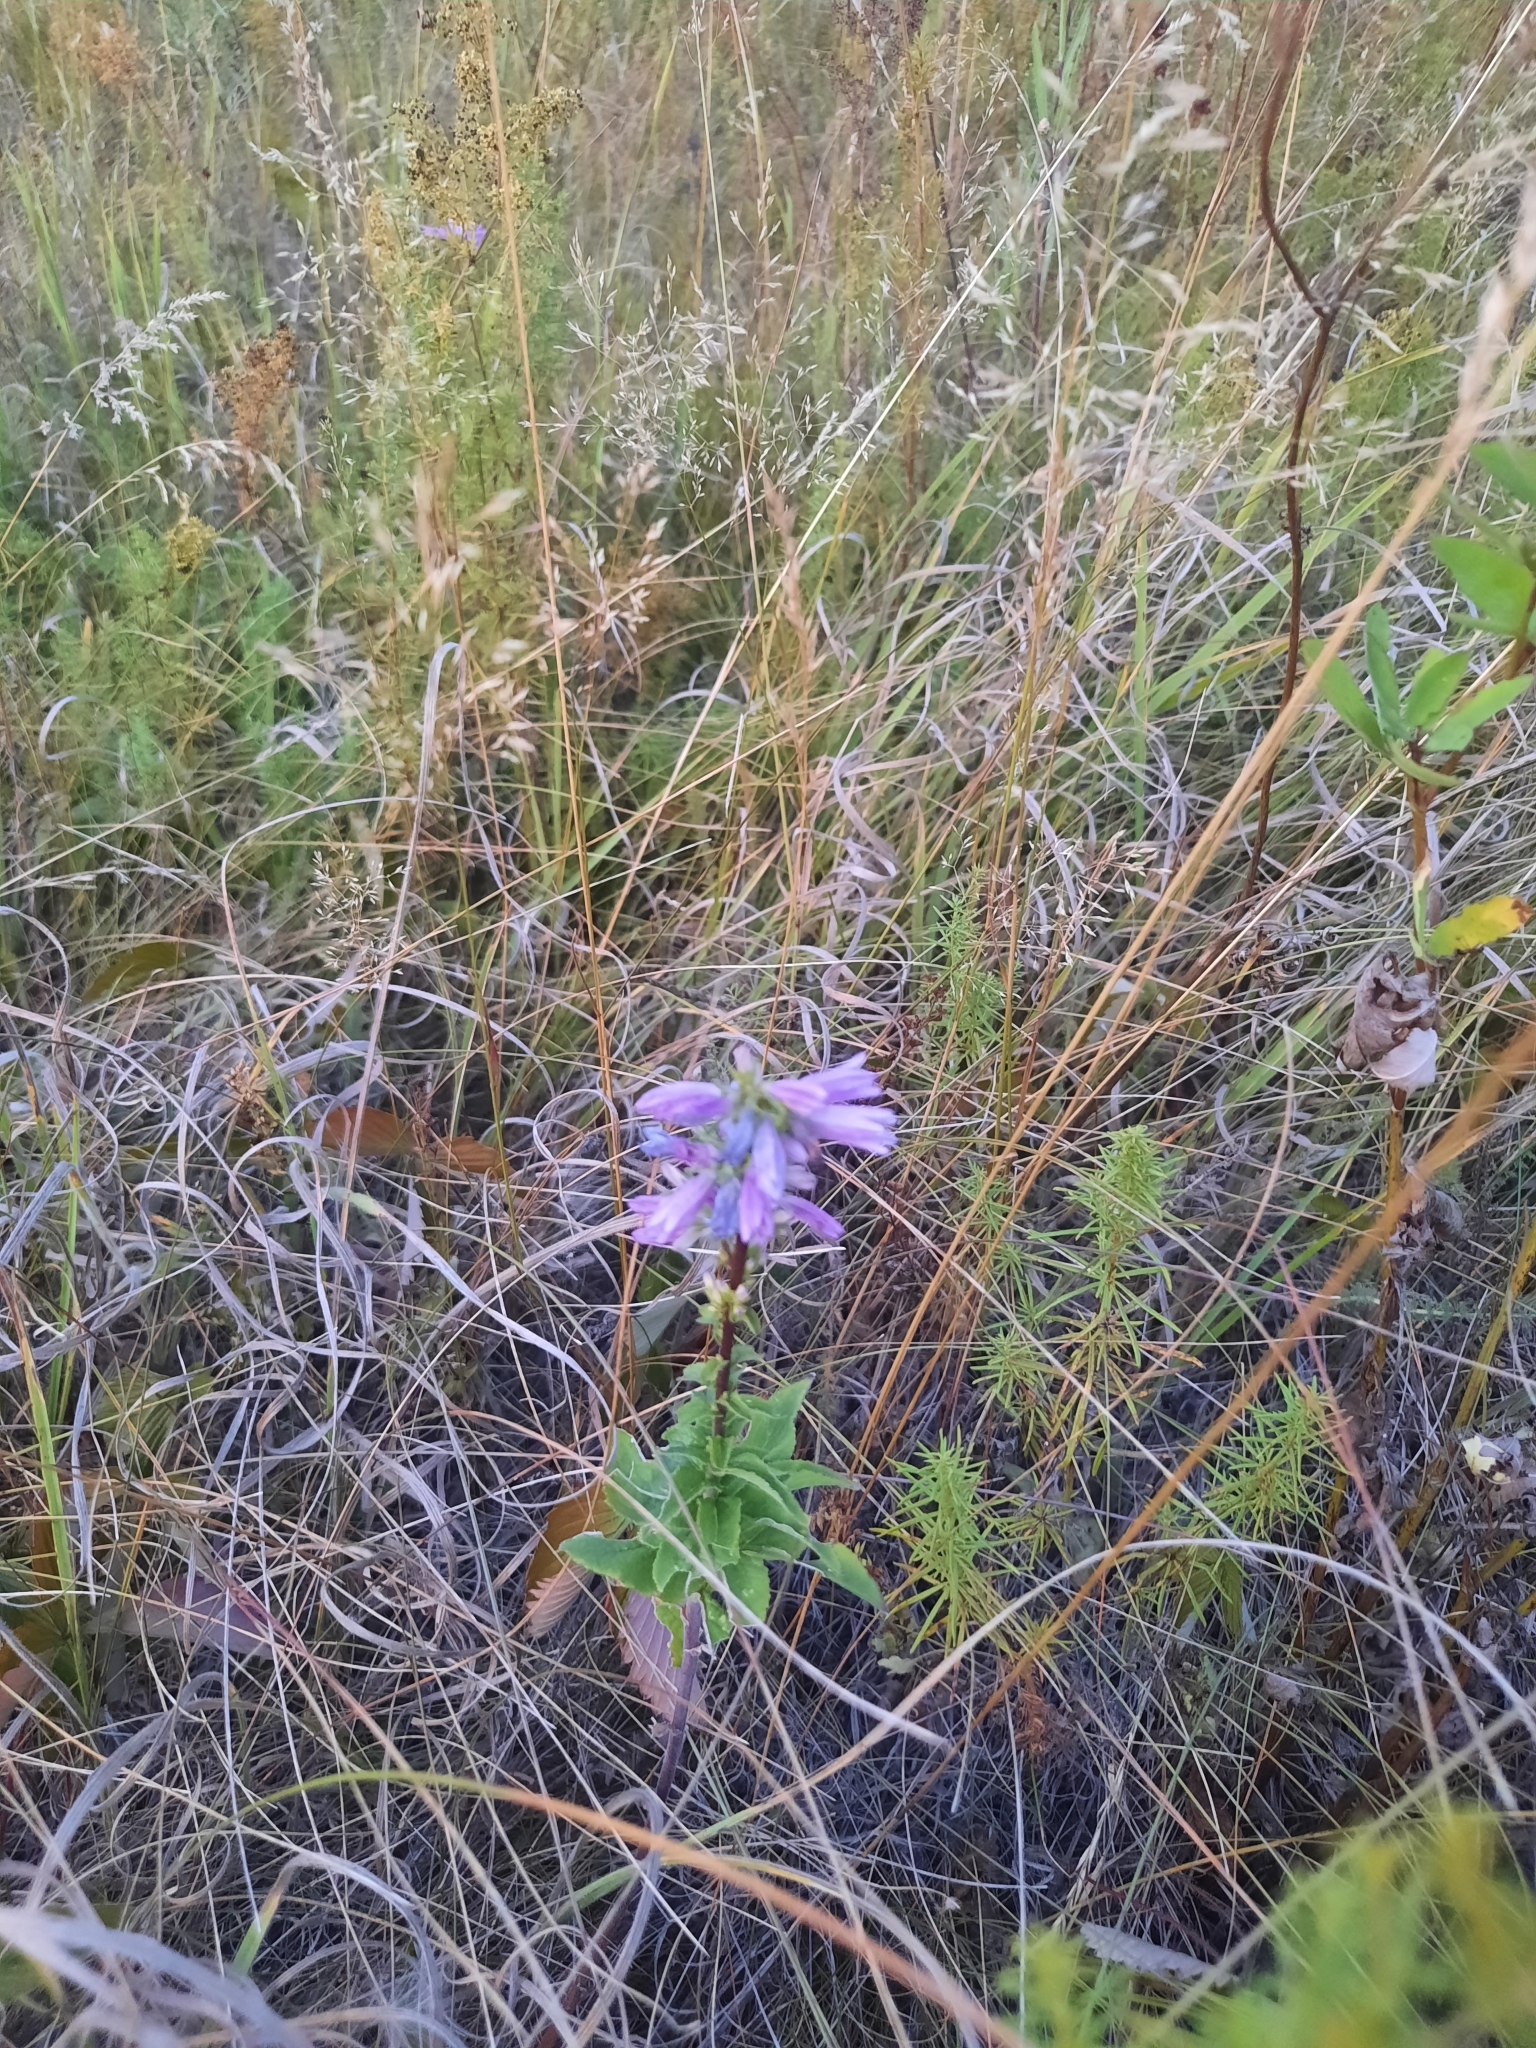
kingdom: Plantae
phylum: Tracheophyta
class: Magnoliopsida
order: Asterales
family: Campanulaceae
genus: Campanula
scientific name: Campanula bononiensis
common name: Pale bellflower
